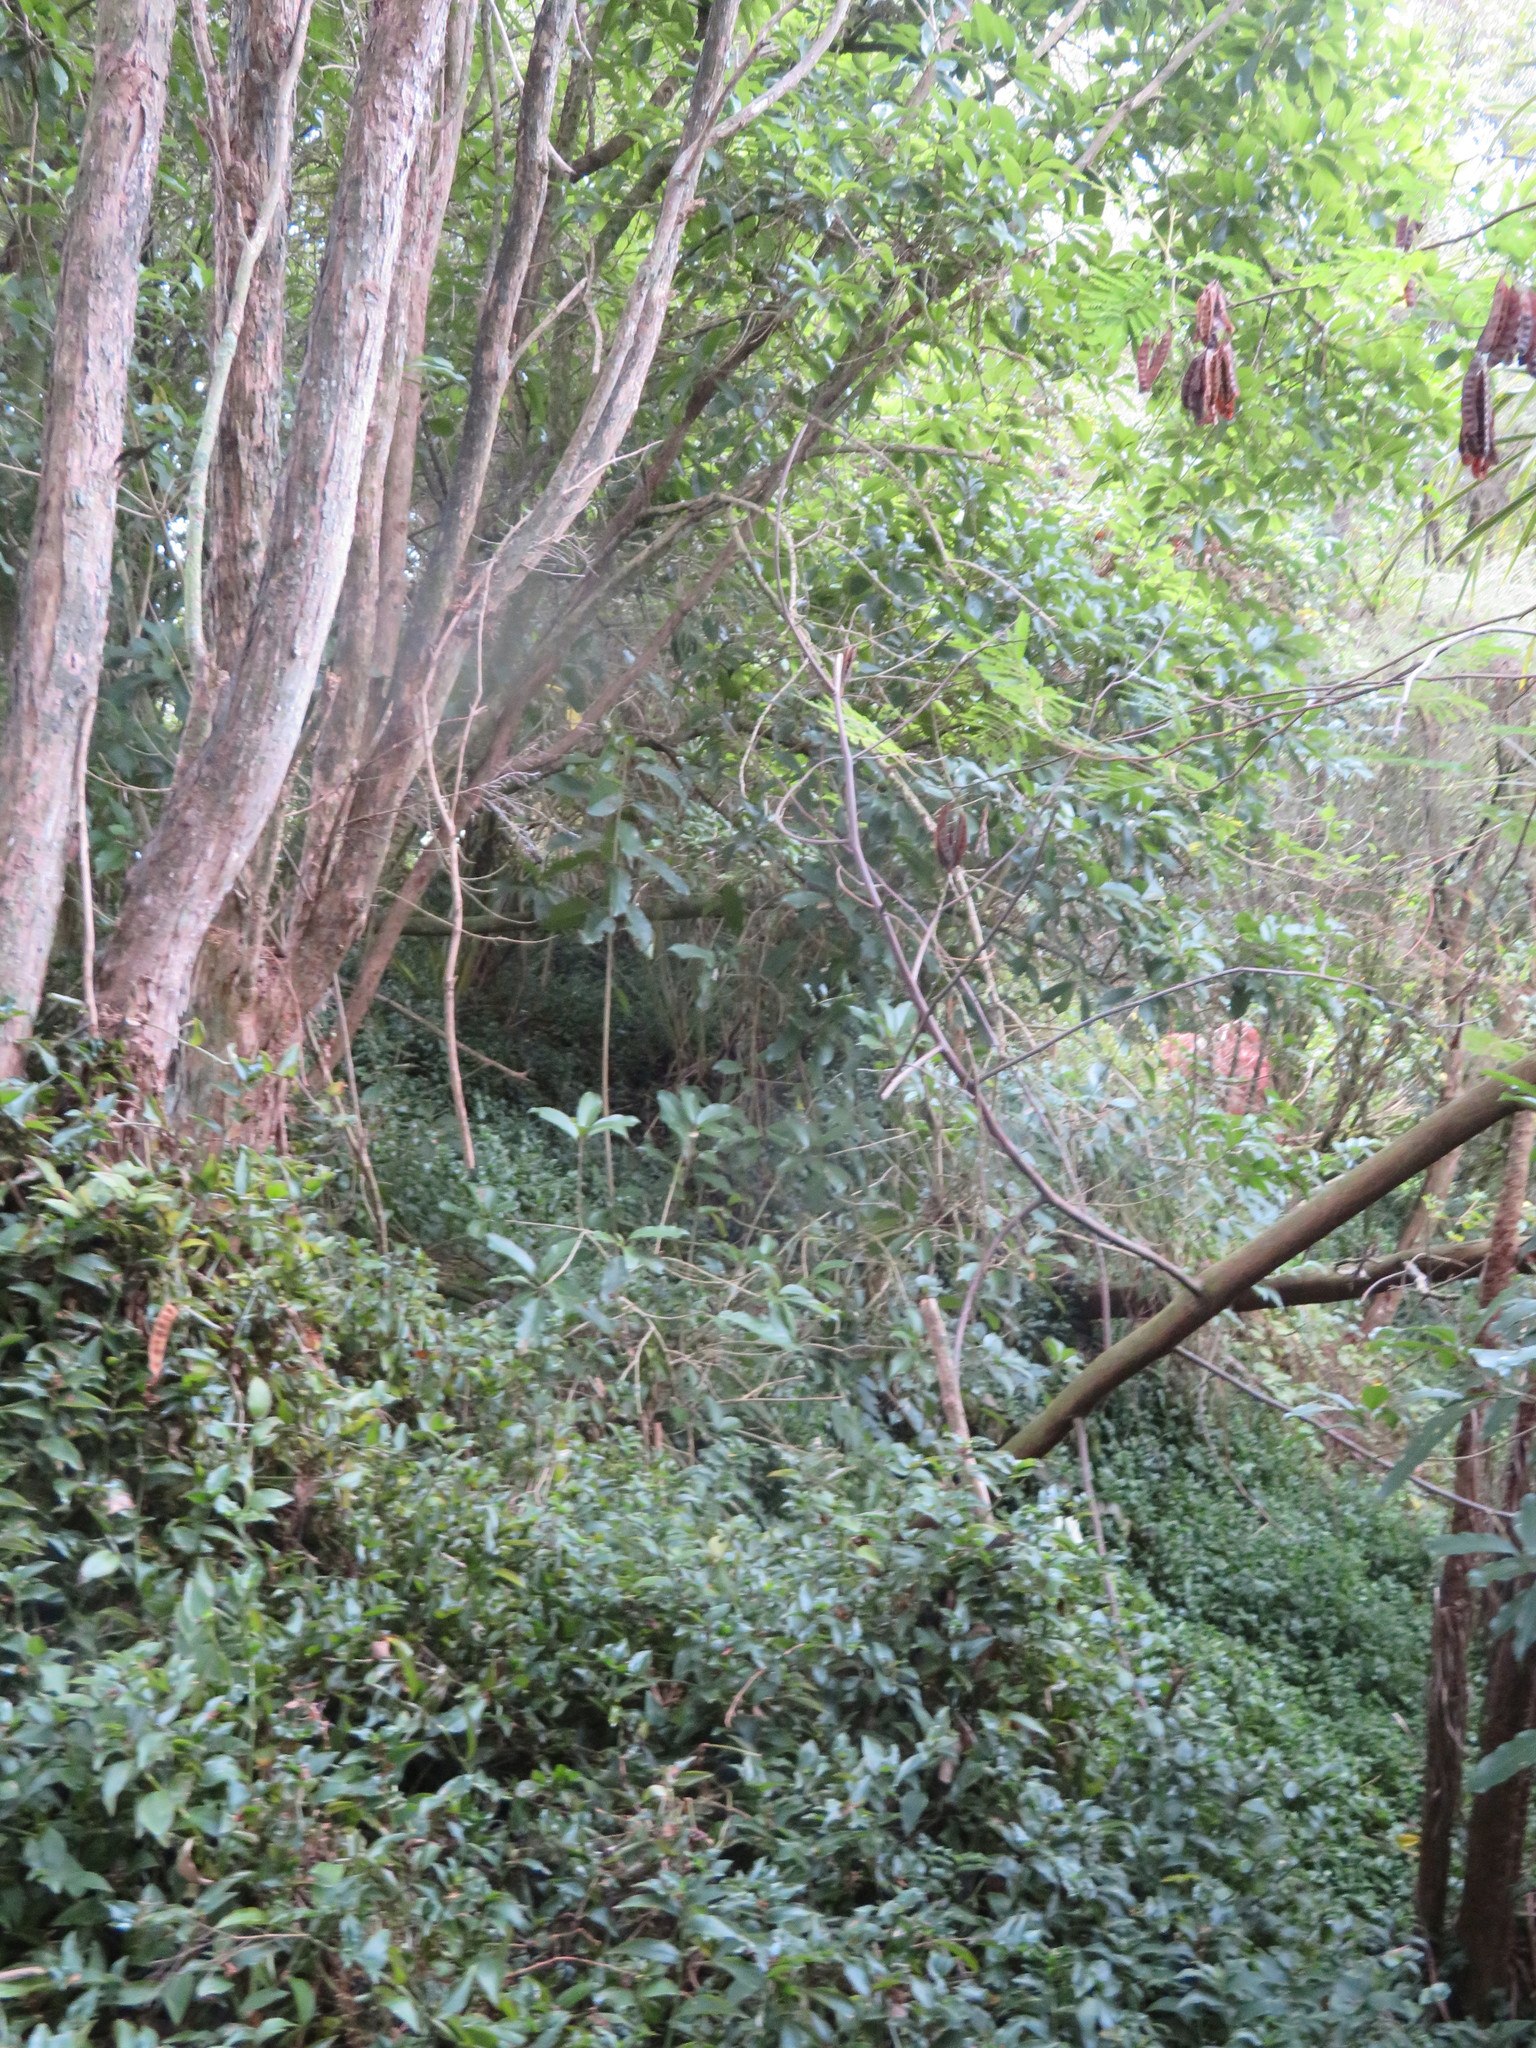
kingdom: Plantae
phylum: Tracheophyta
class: Magnoliopsida
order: Fabales
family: Fabaceae
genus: Paraserianthes
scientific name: Paraserianthes lophantha
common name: Plume albizia
